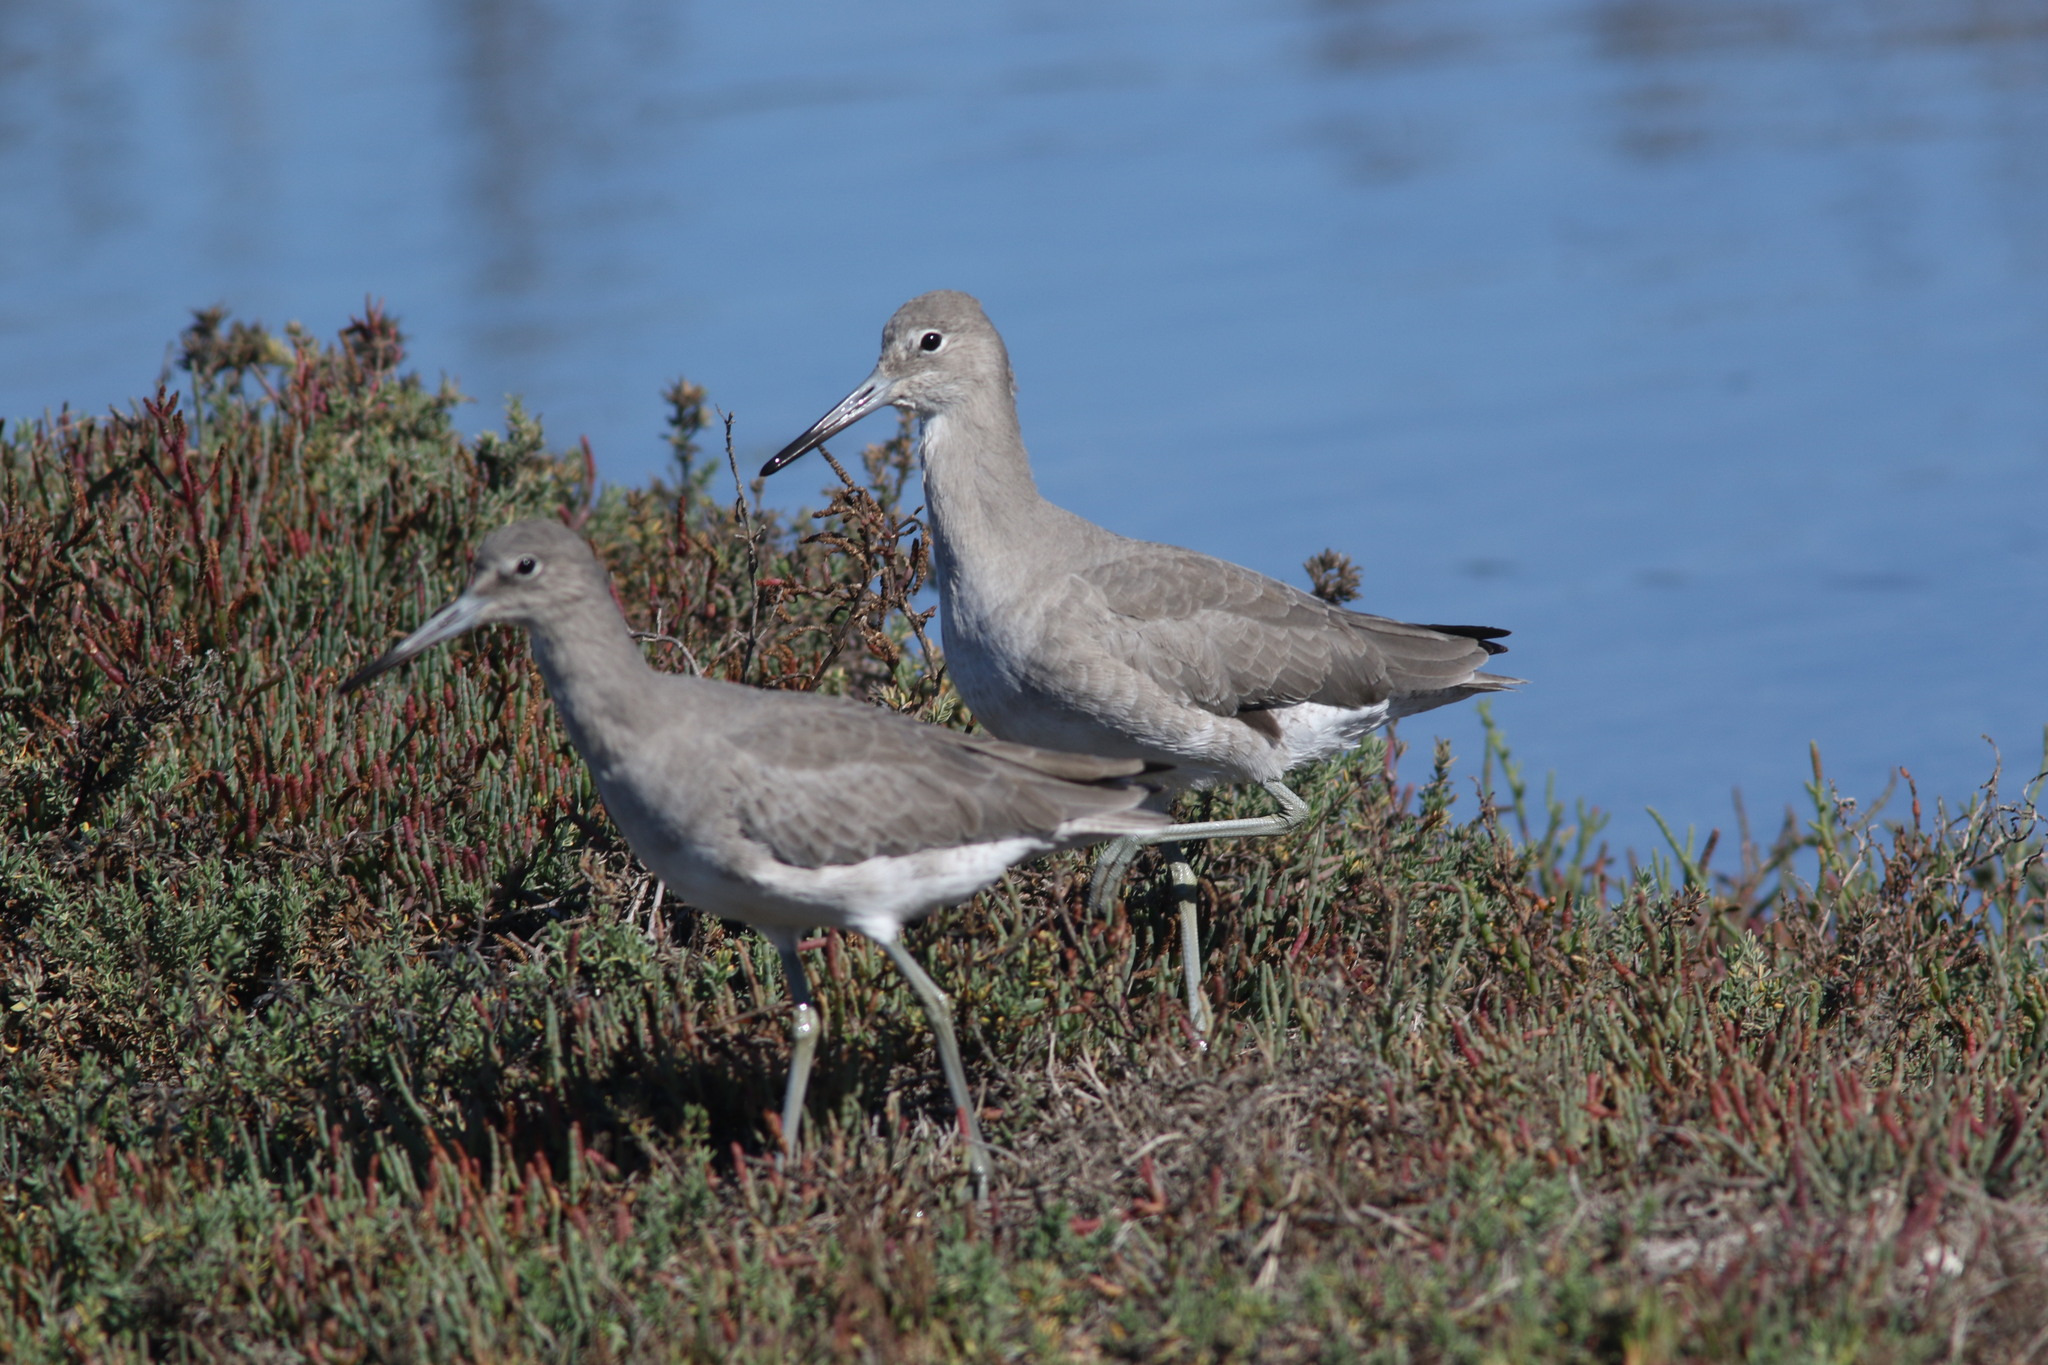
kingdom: Animalia
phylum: Chordata
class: Aves
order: Charadriiformes
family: Scolopacidae
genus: Tringa
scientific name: Tringa semipalmata
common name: Willet
